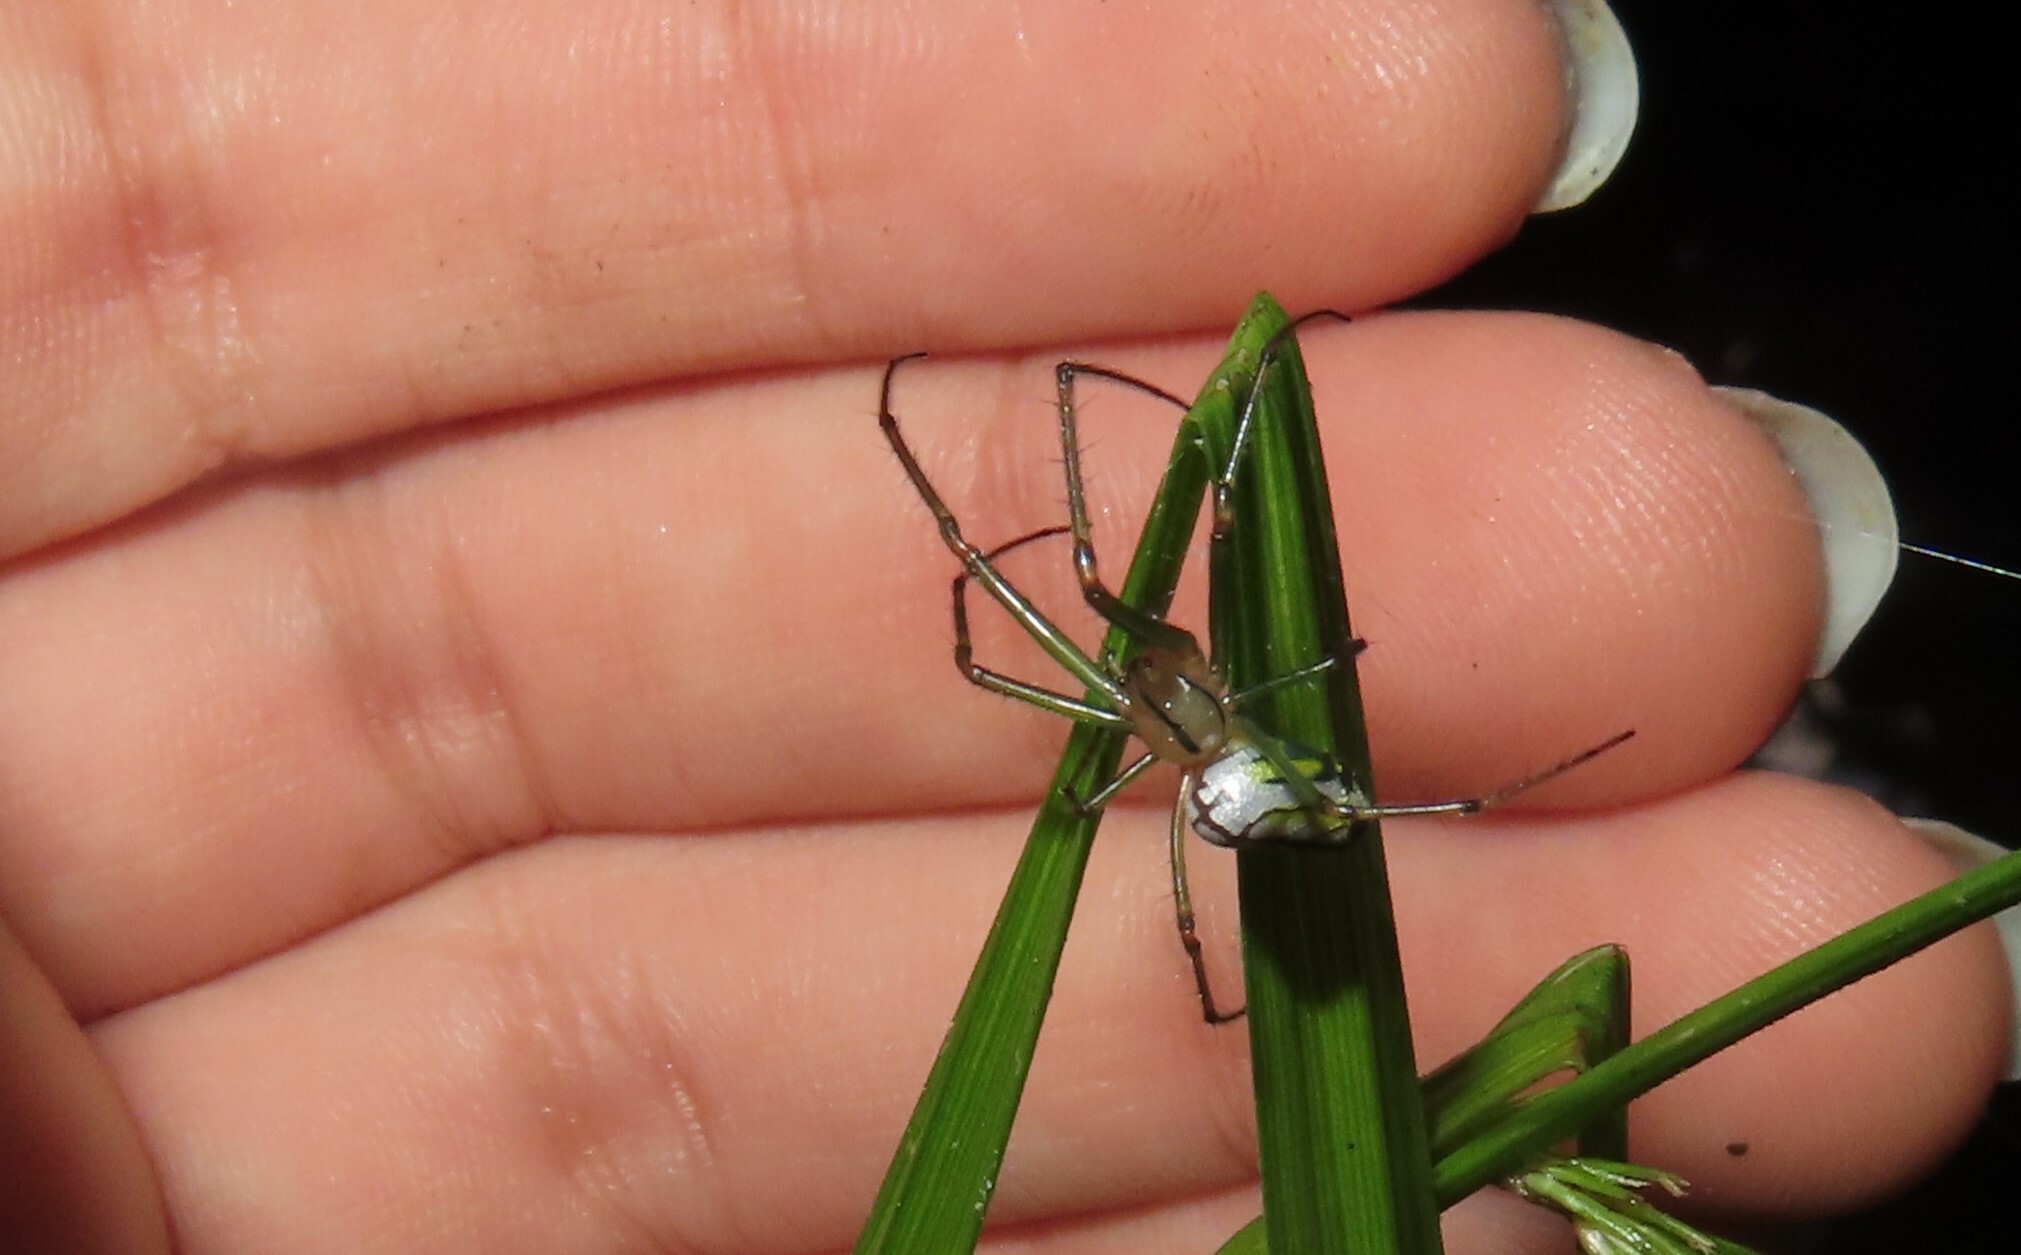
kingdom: Animalia
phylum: Arthropoda
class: Arachnida
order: Araneae
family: Tetragnathidae
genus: Leucauge
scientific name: Leucauge venusta
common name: Longjawed orb weavers
